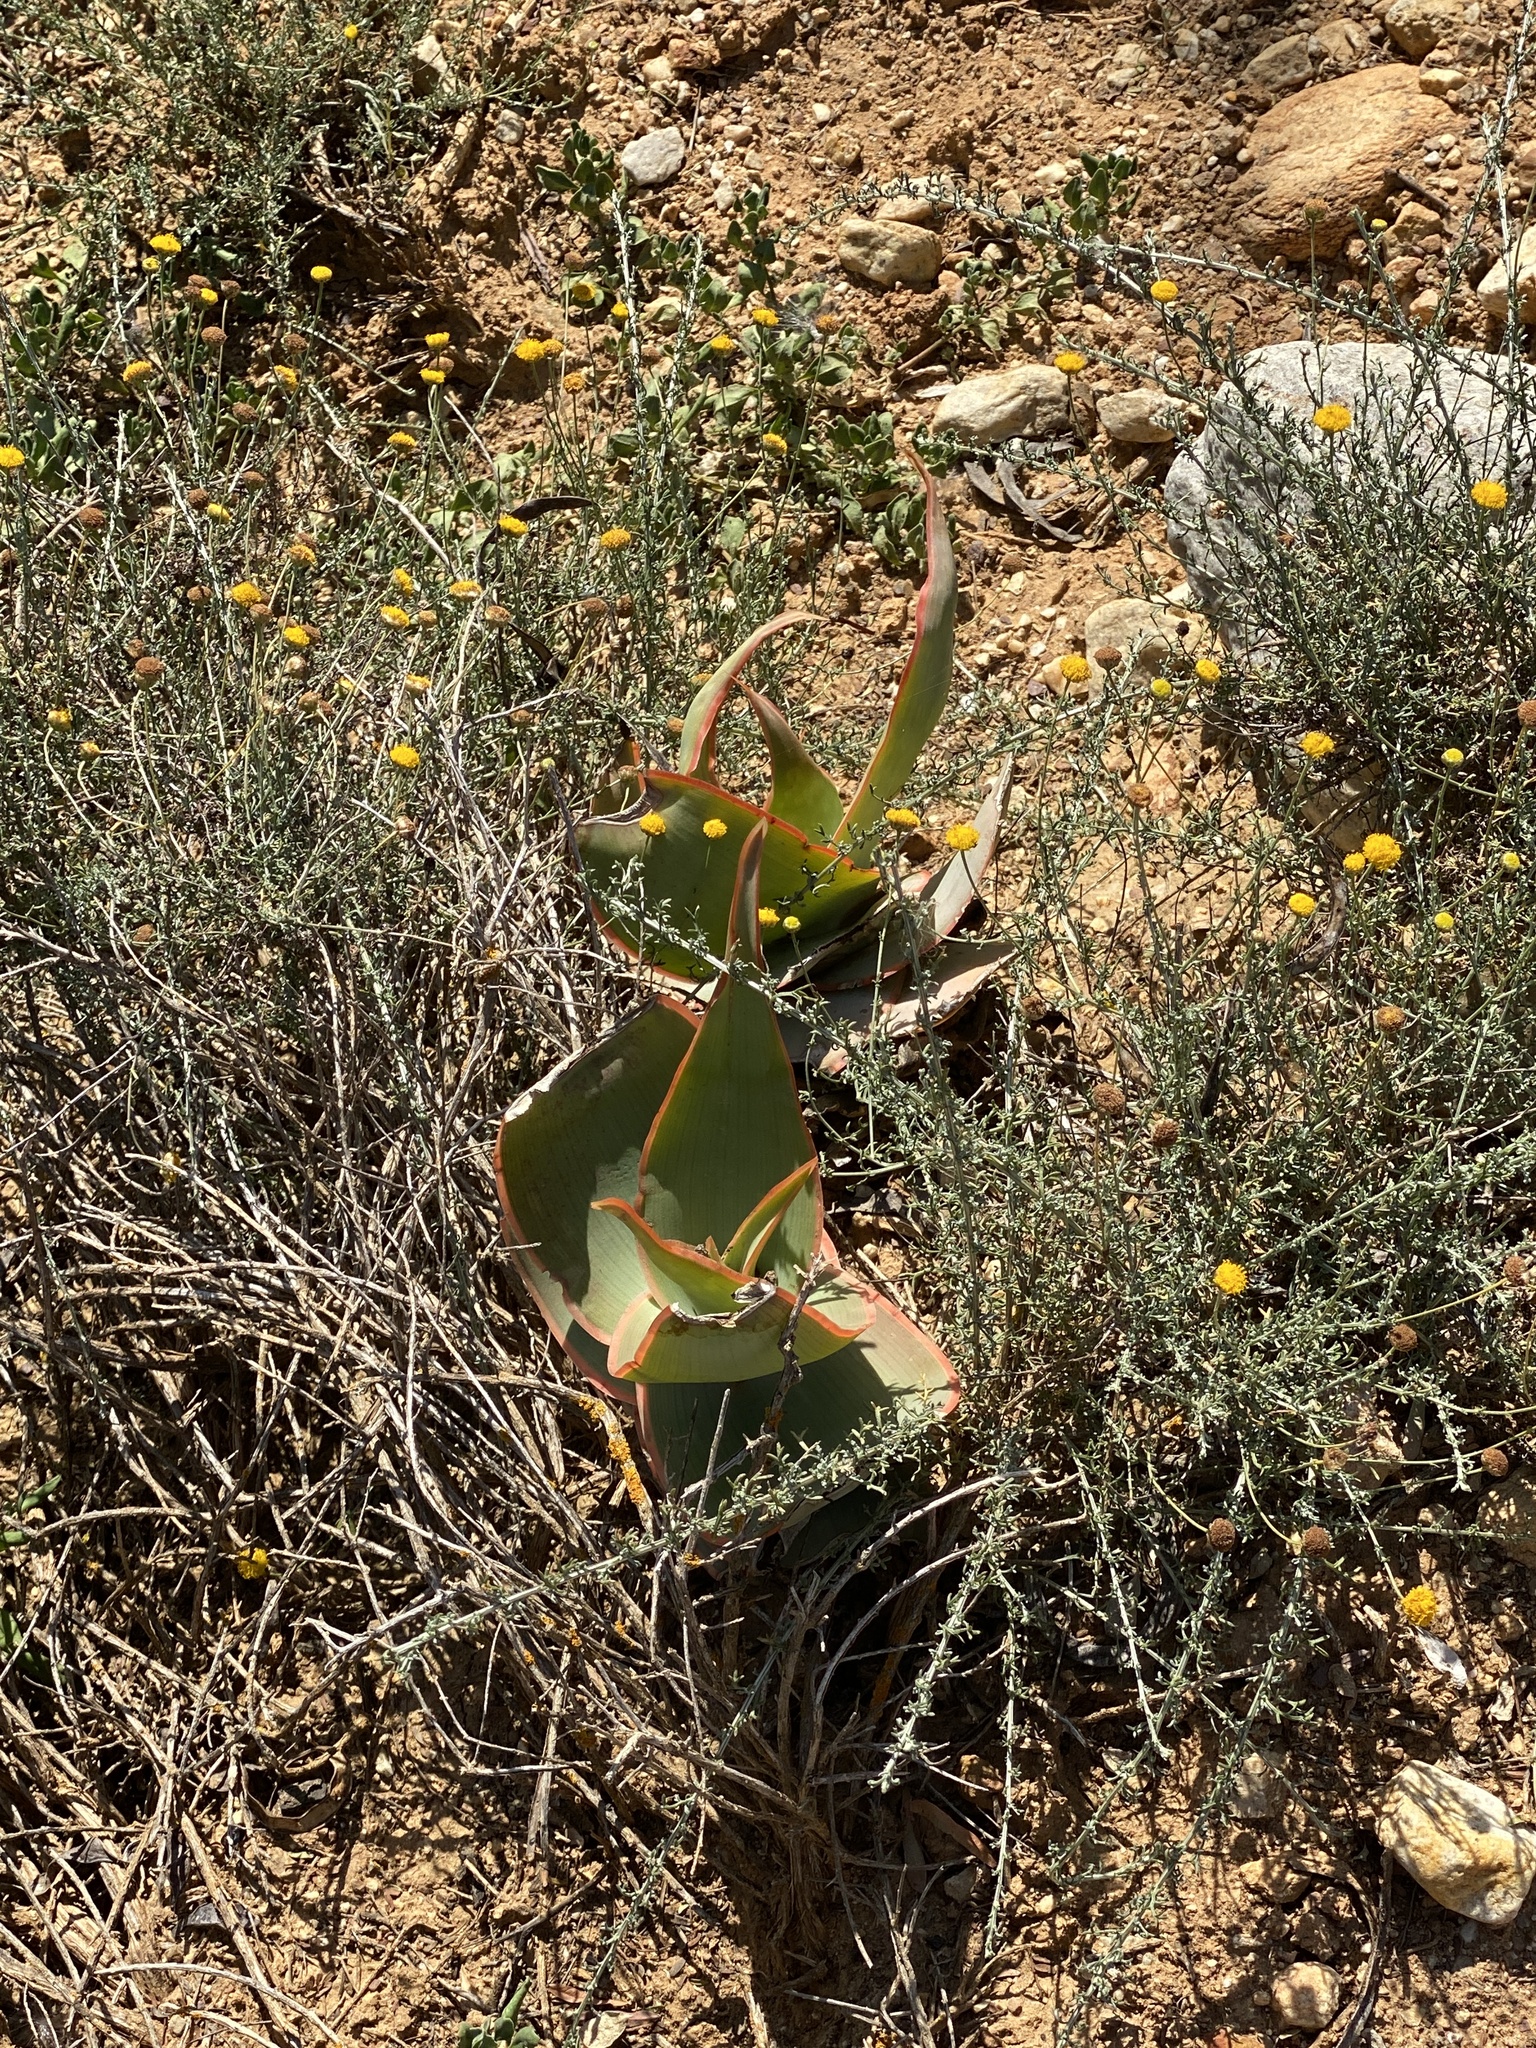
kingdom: Plantae
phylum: Tracheophyta
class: Liliopsida
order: Asparagales
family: Asphodelaceae
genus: Aloe
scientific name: Aloe striata
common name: Coral aloe
